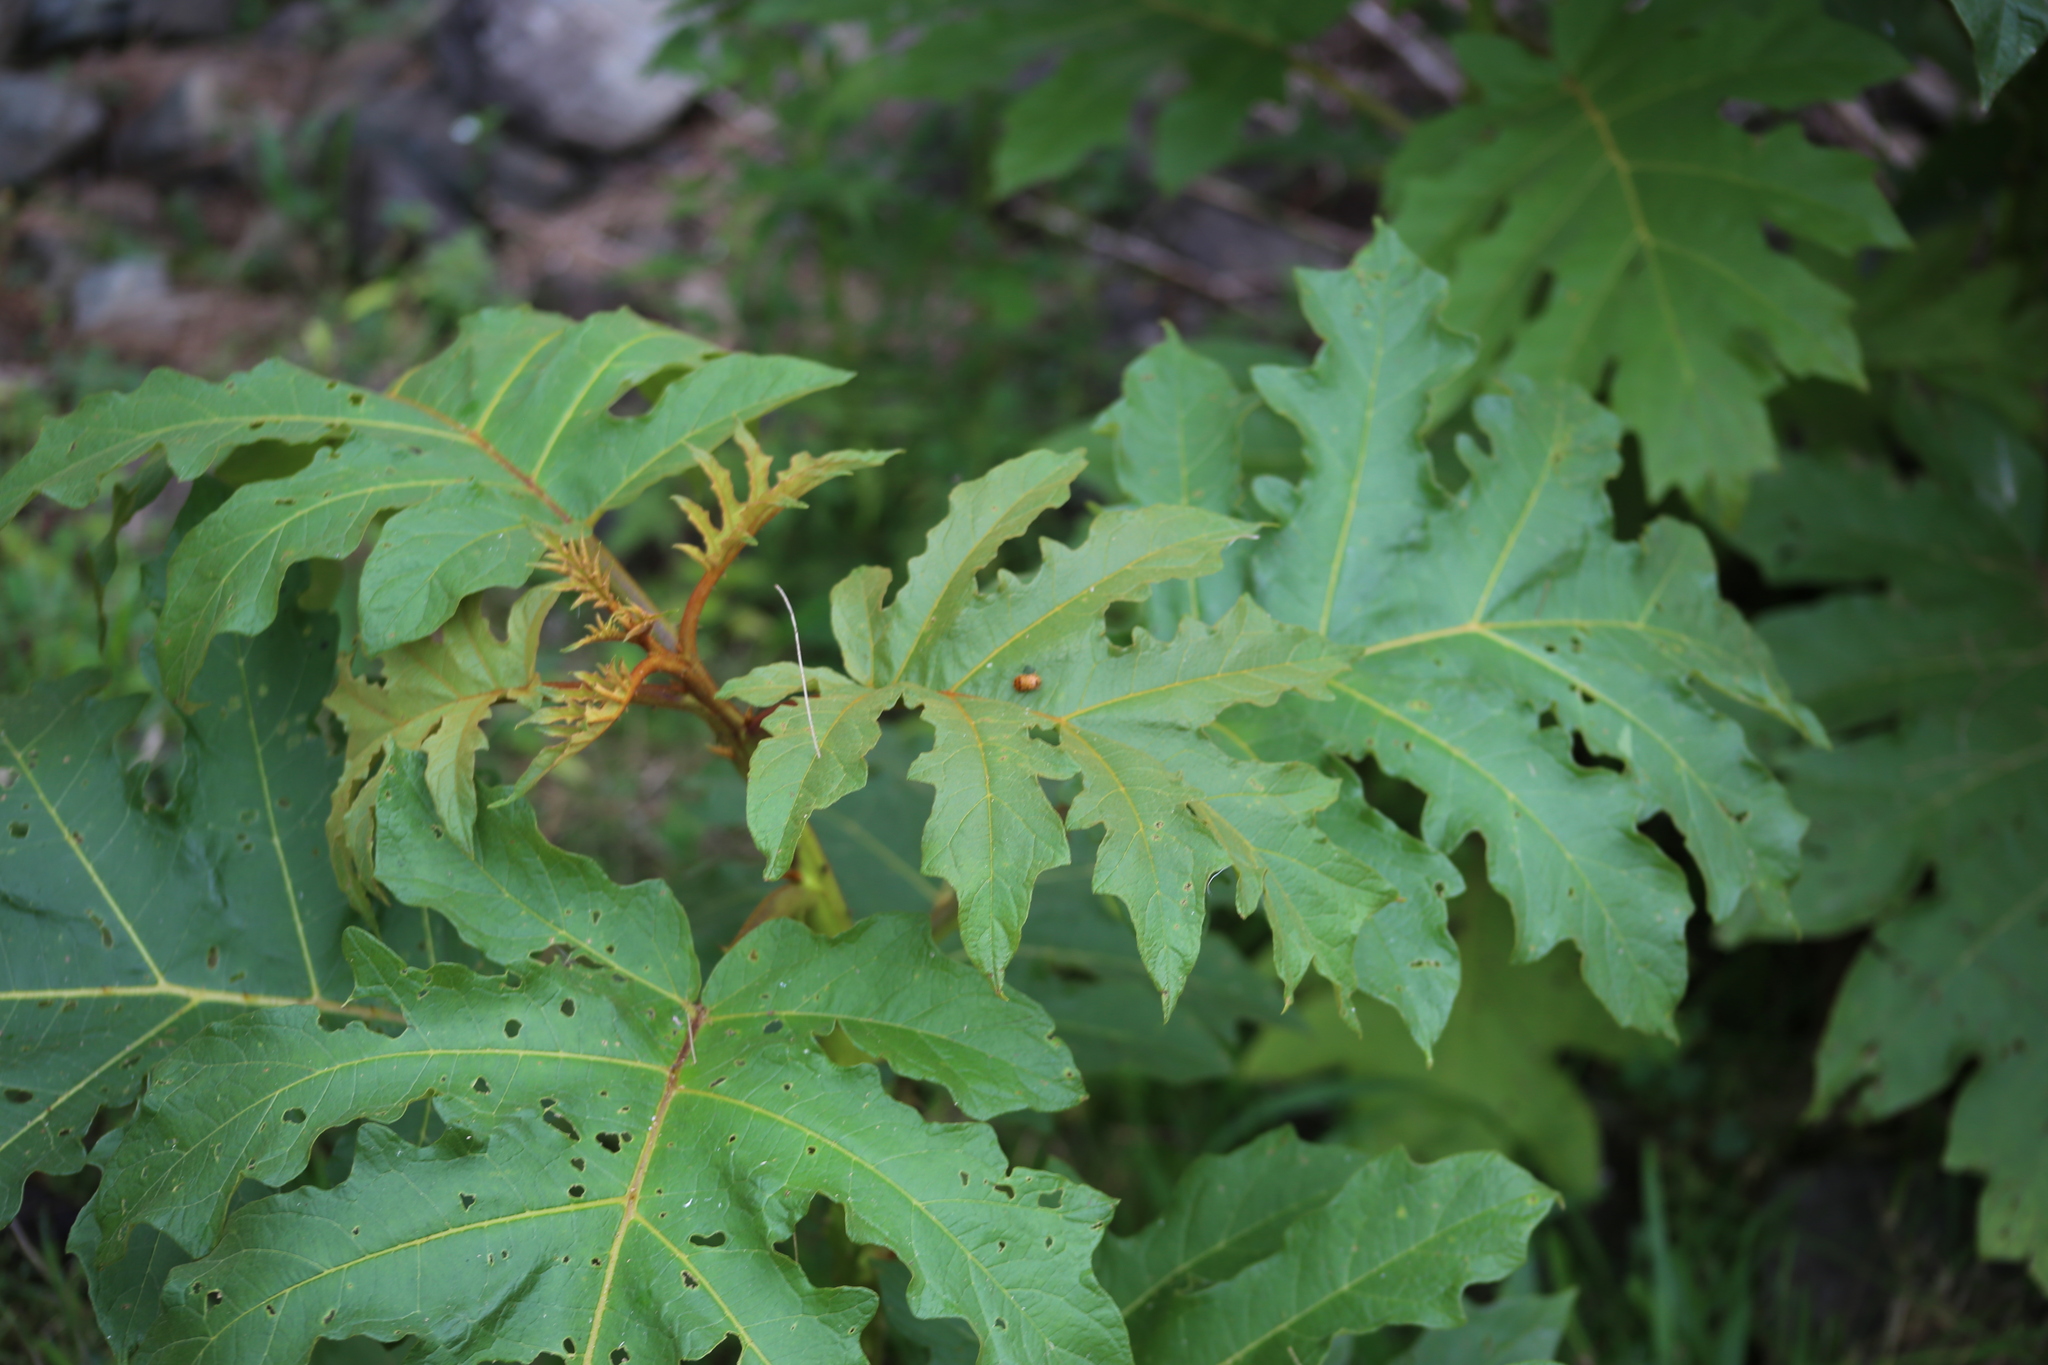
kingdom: Animalia
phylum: Arthropoda
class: Insecta
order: Coleoptera
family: Coccinellidae
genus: Henosepilachna
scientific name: Henosepilachna vigintioctopunctata
